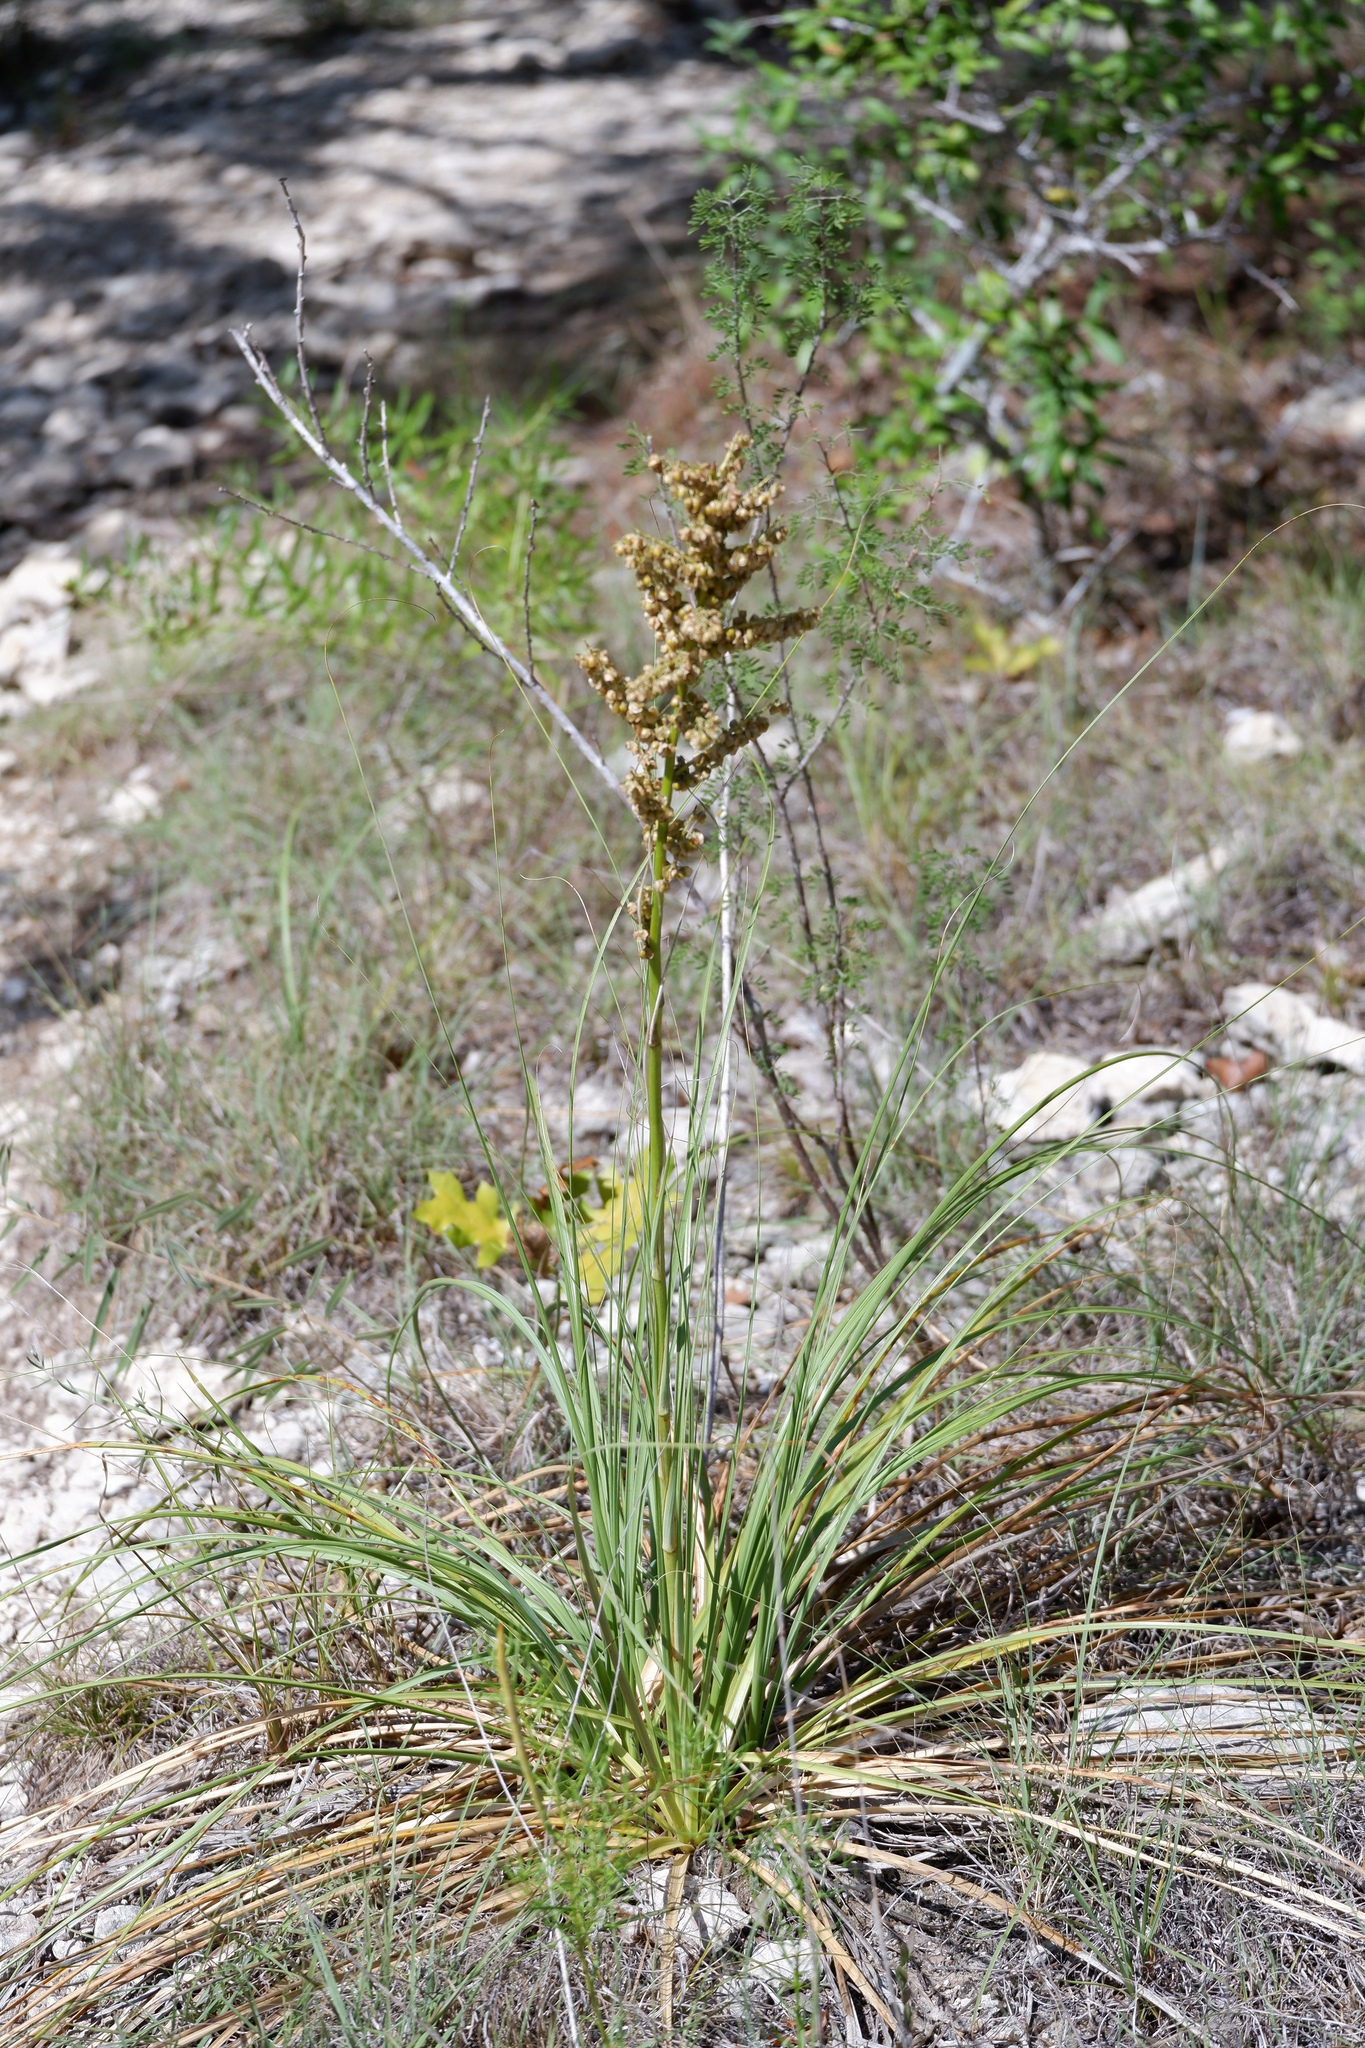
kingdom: Plantae
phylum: Tracheophyta
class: Liliopsida
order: Asparagales
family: Asparagaceae
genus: Nolina
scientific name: Nolina lindheimeriana
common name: Lindheimer's bear-grass
